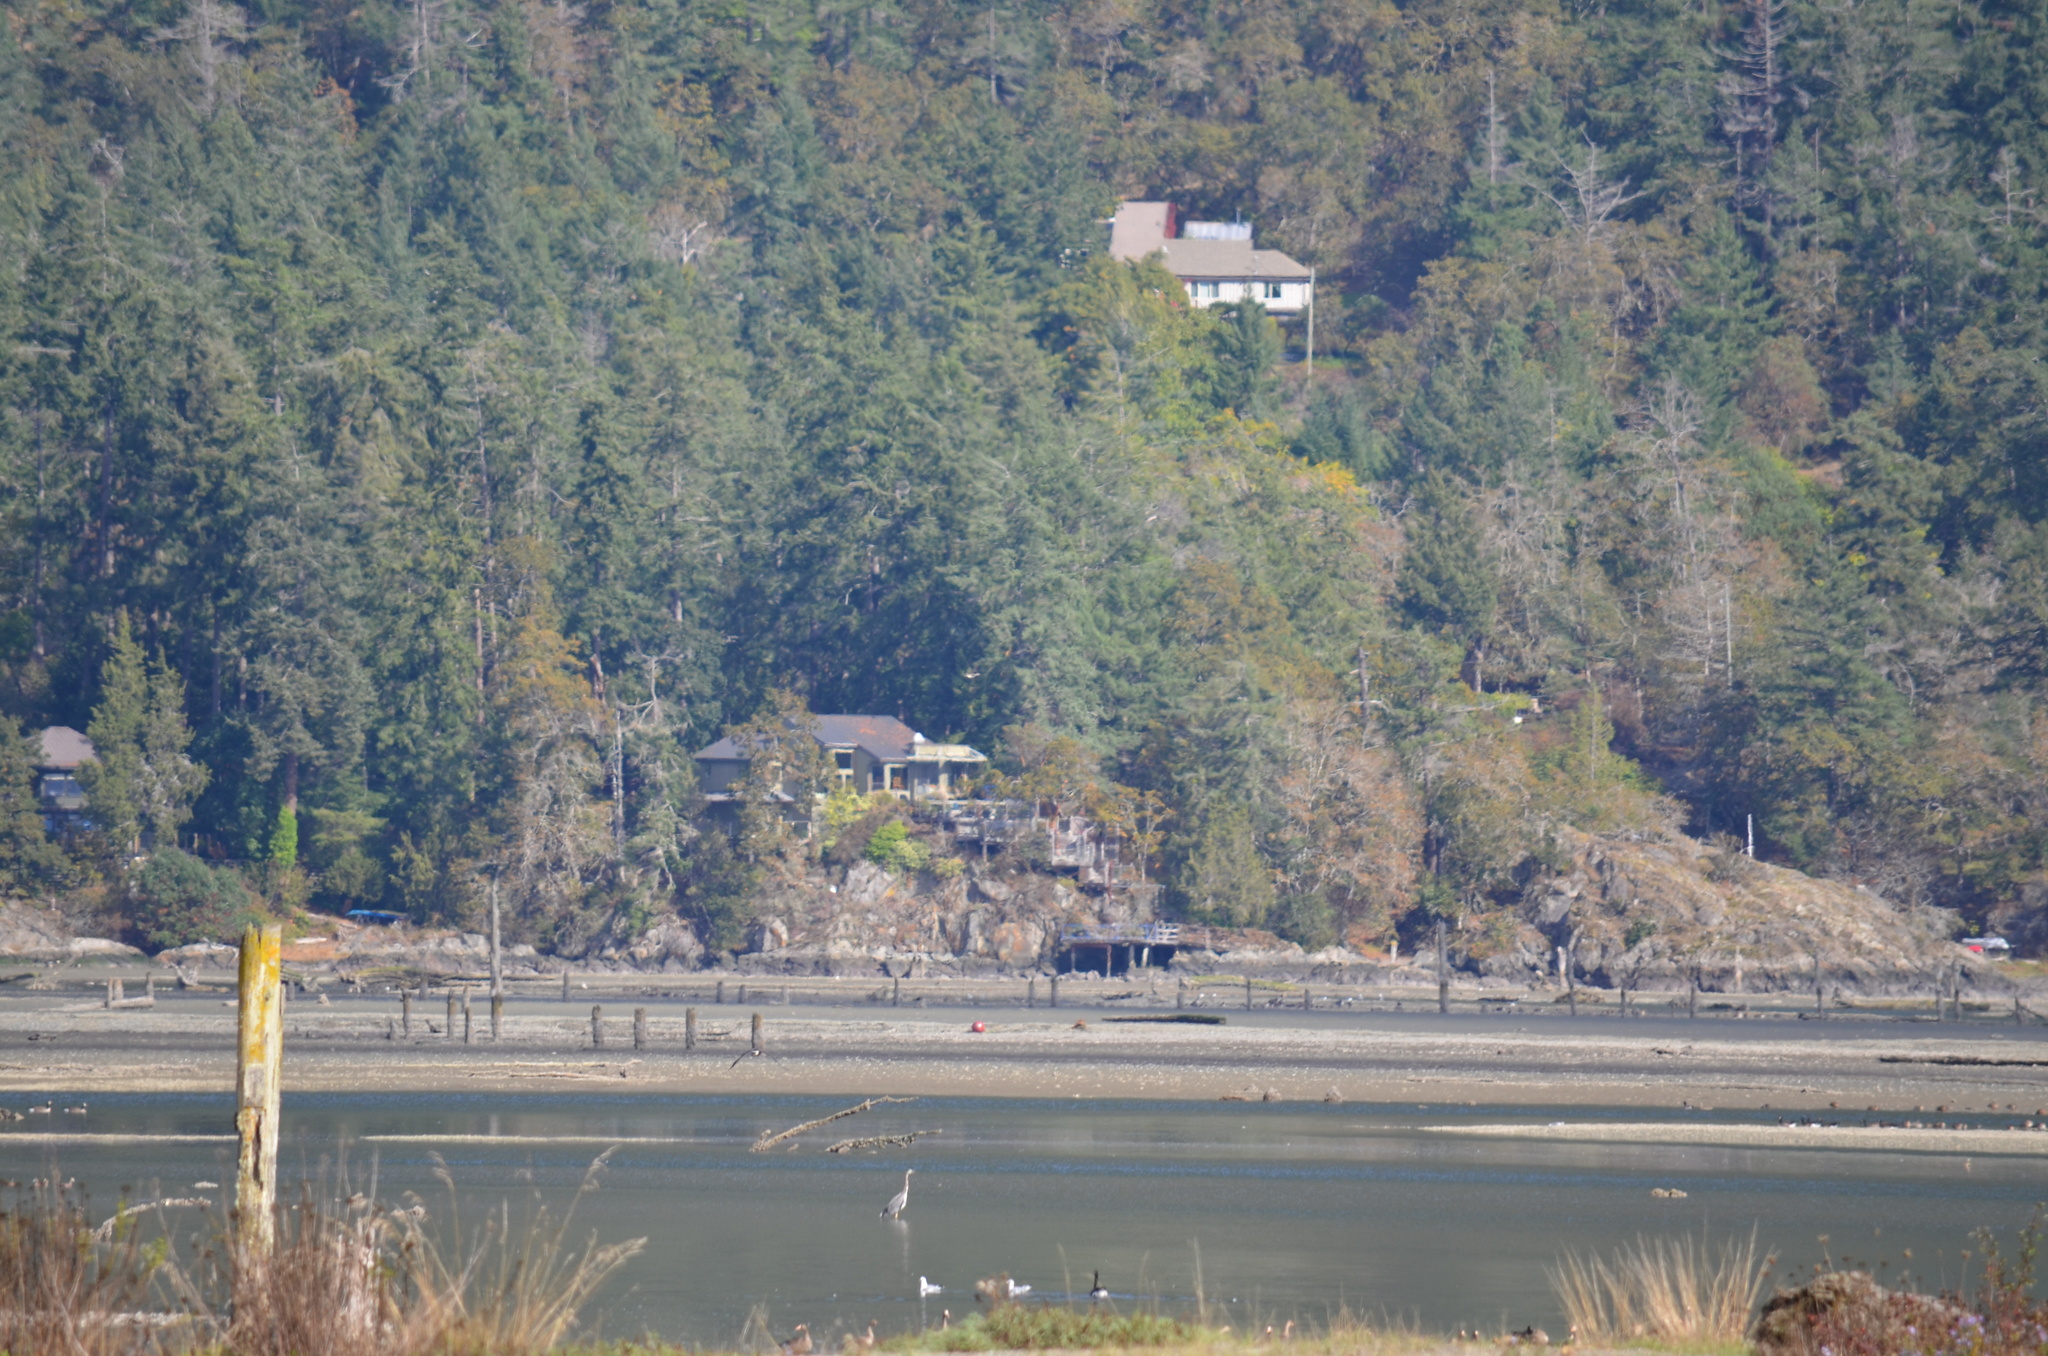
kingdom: Animalia
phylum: Chordata
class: Aves
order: Pelecaniformes
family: Ardeidae
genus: Ardea
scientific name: Ardea herodias
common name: Great blue heron
